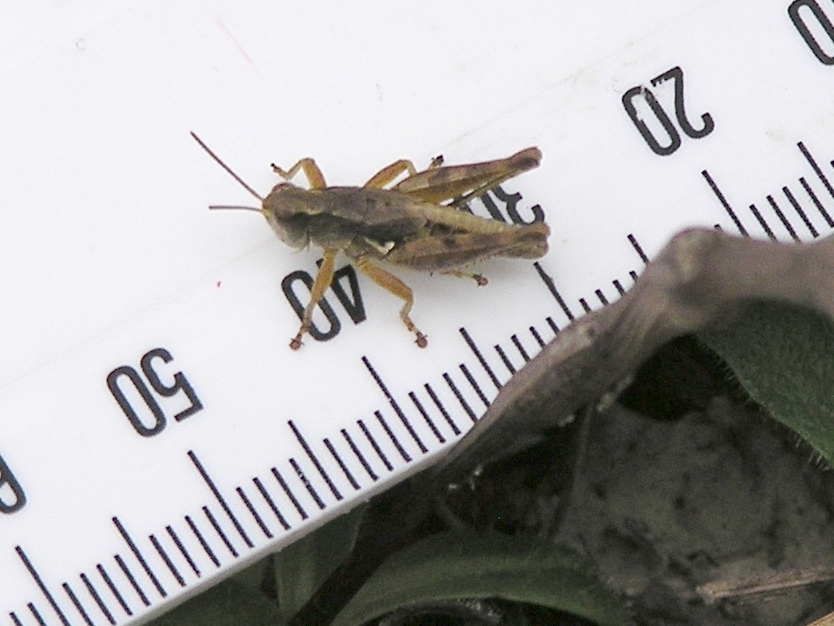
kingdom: Animalia
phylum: Arthropoda
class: Insecta
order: Orthoptera
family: Acrididae
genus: Phaulacridium
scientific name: Phaulacridium marginale
